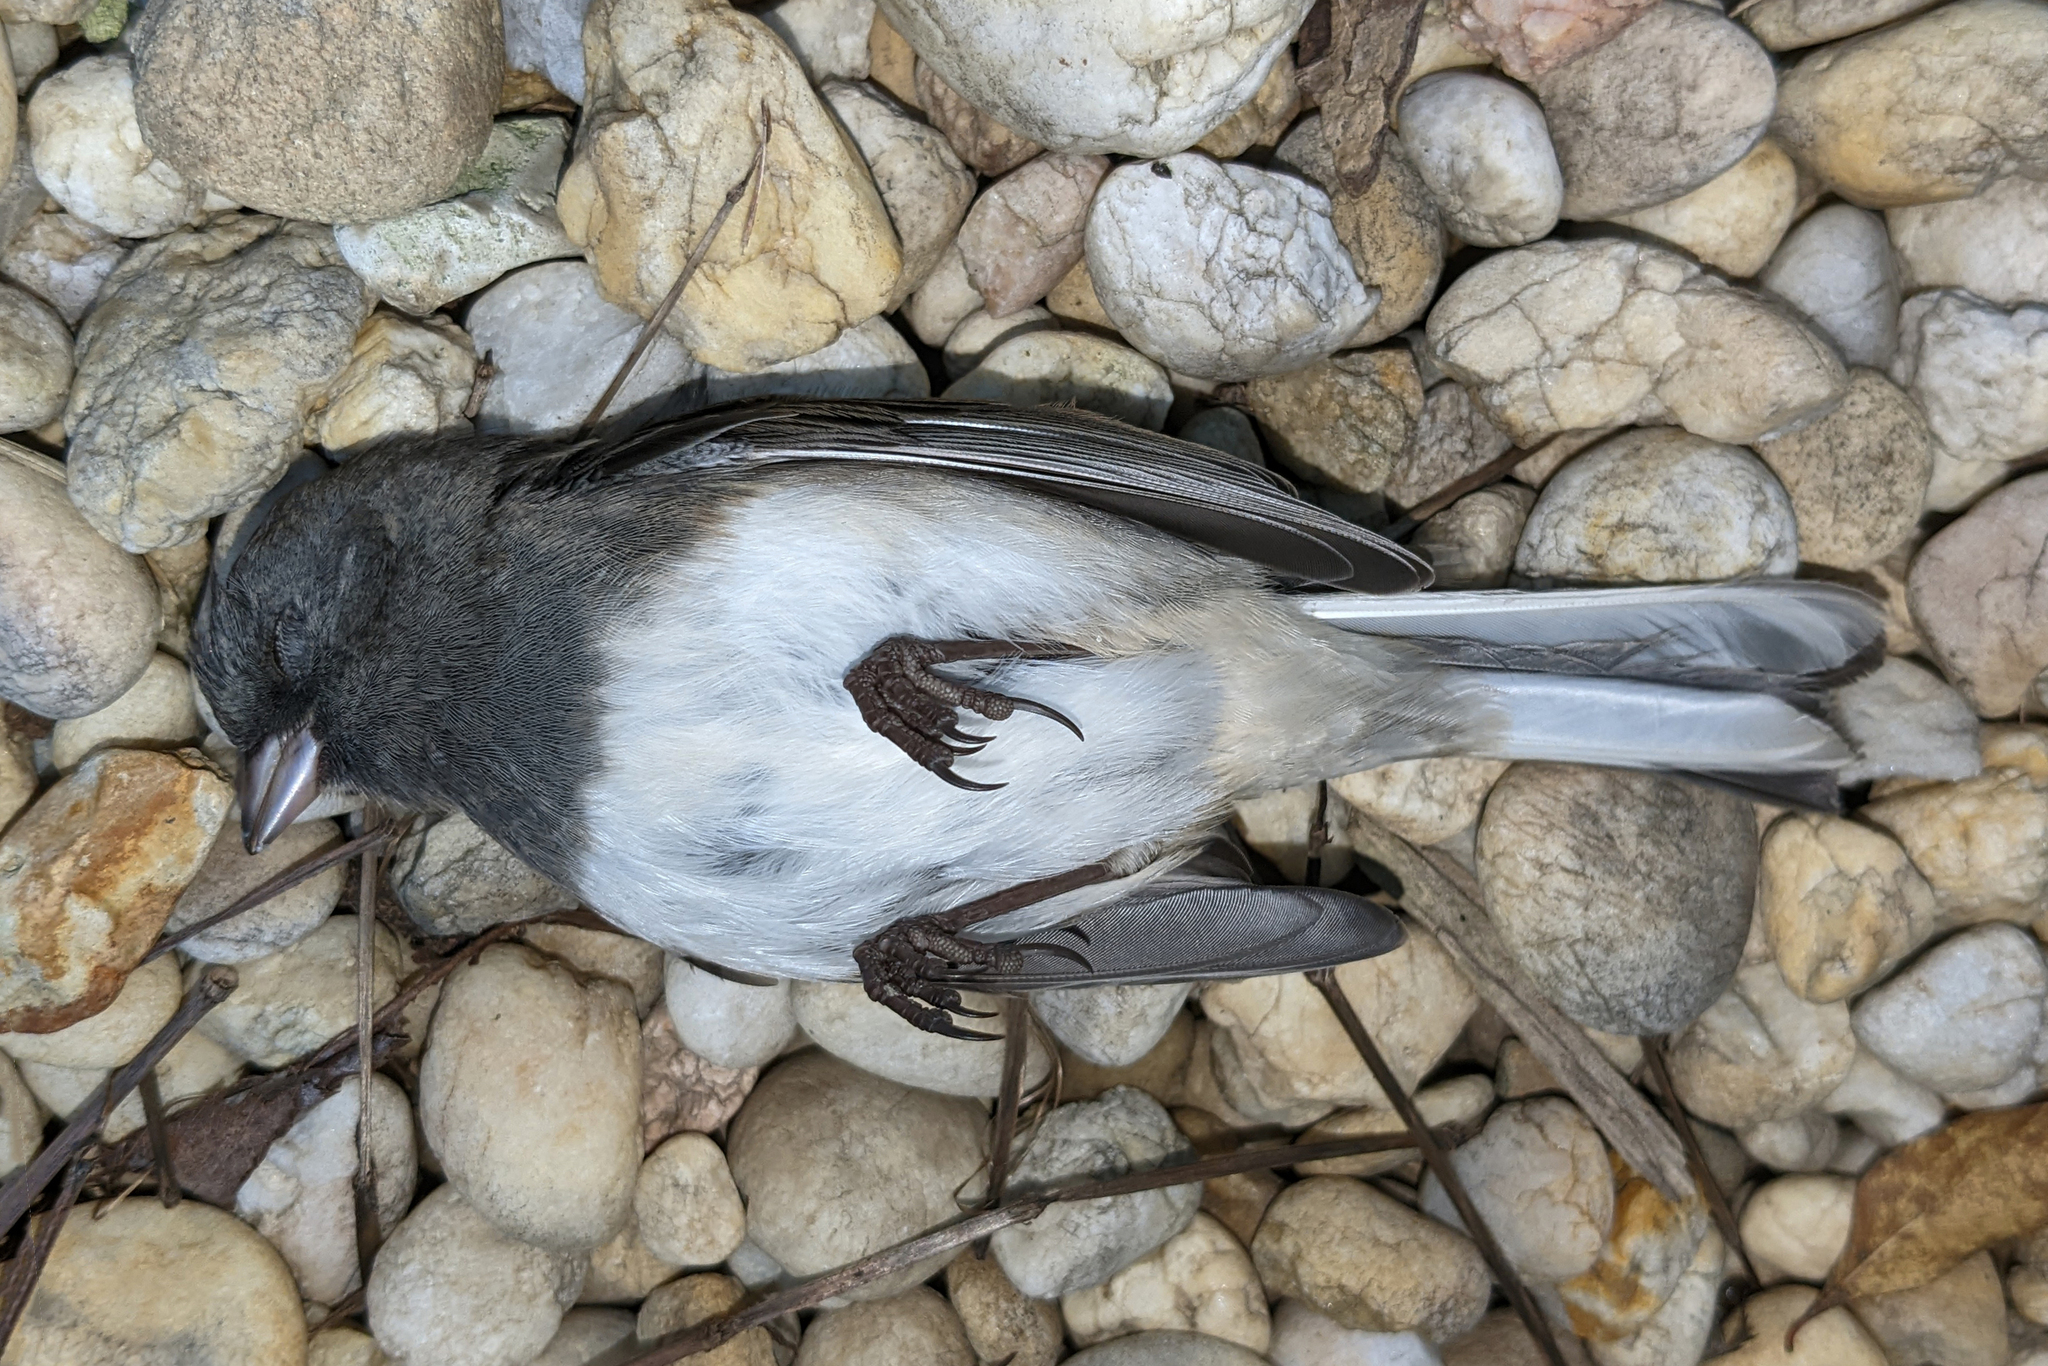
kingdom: Animalia
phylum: Chordata
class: Aves
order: Passeriformes
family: Passerellidae
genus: Junco
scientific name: Junco hyemalis
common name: Dark-eyed junco
